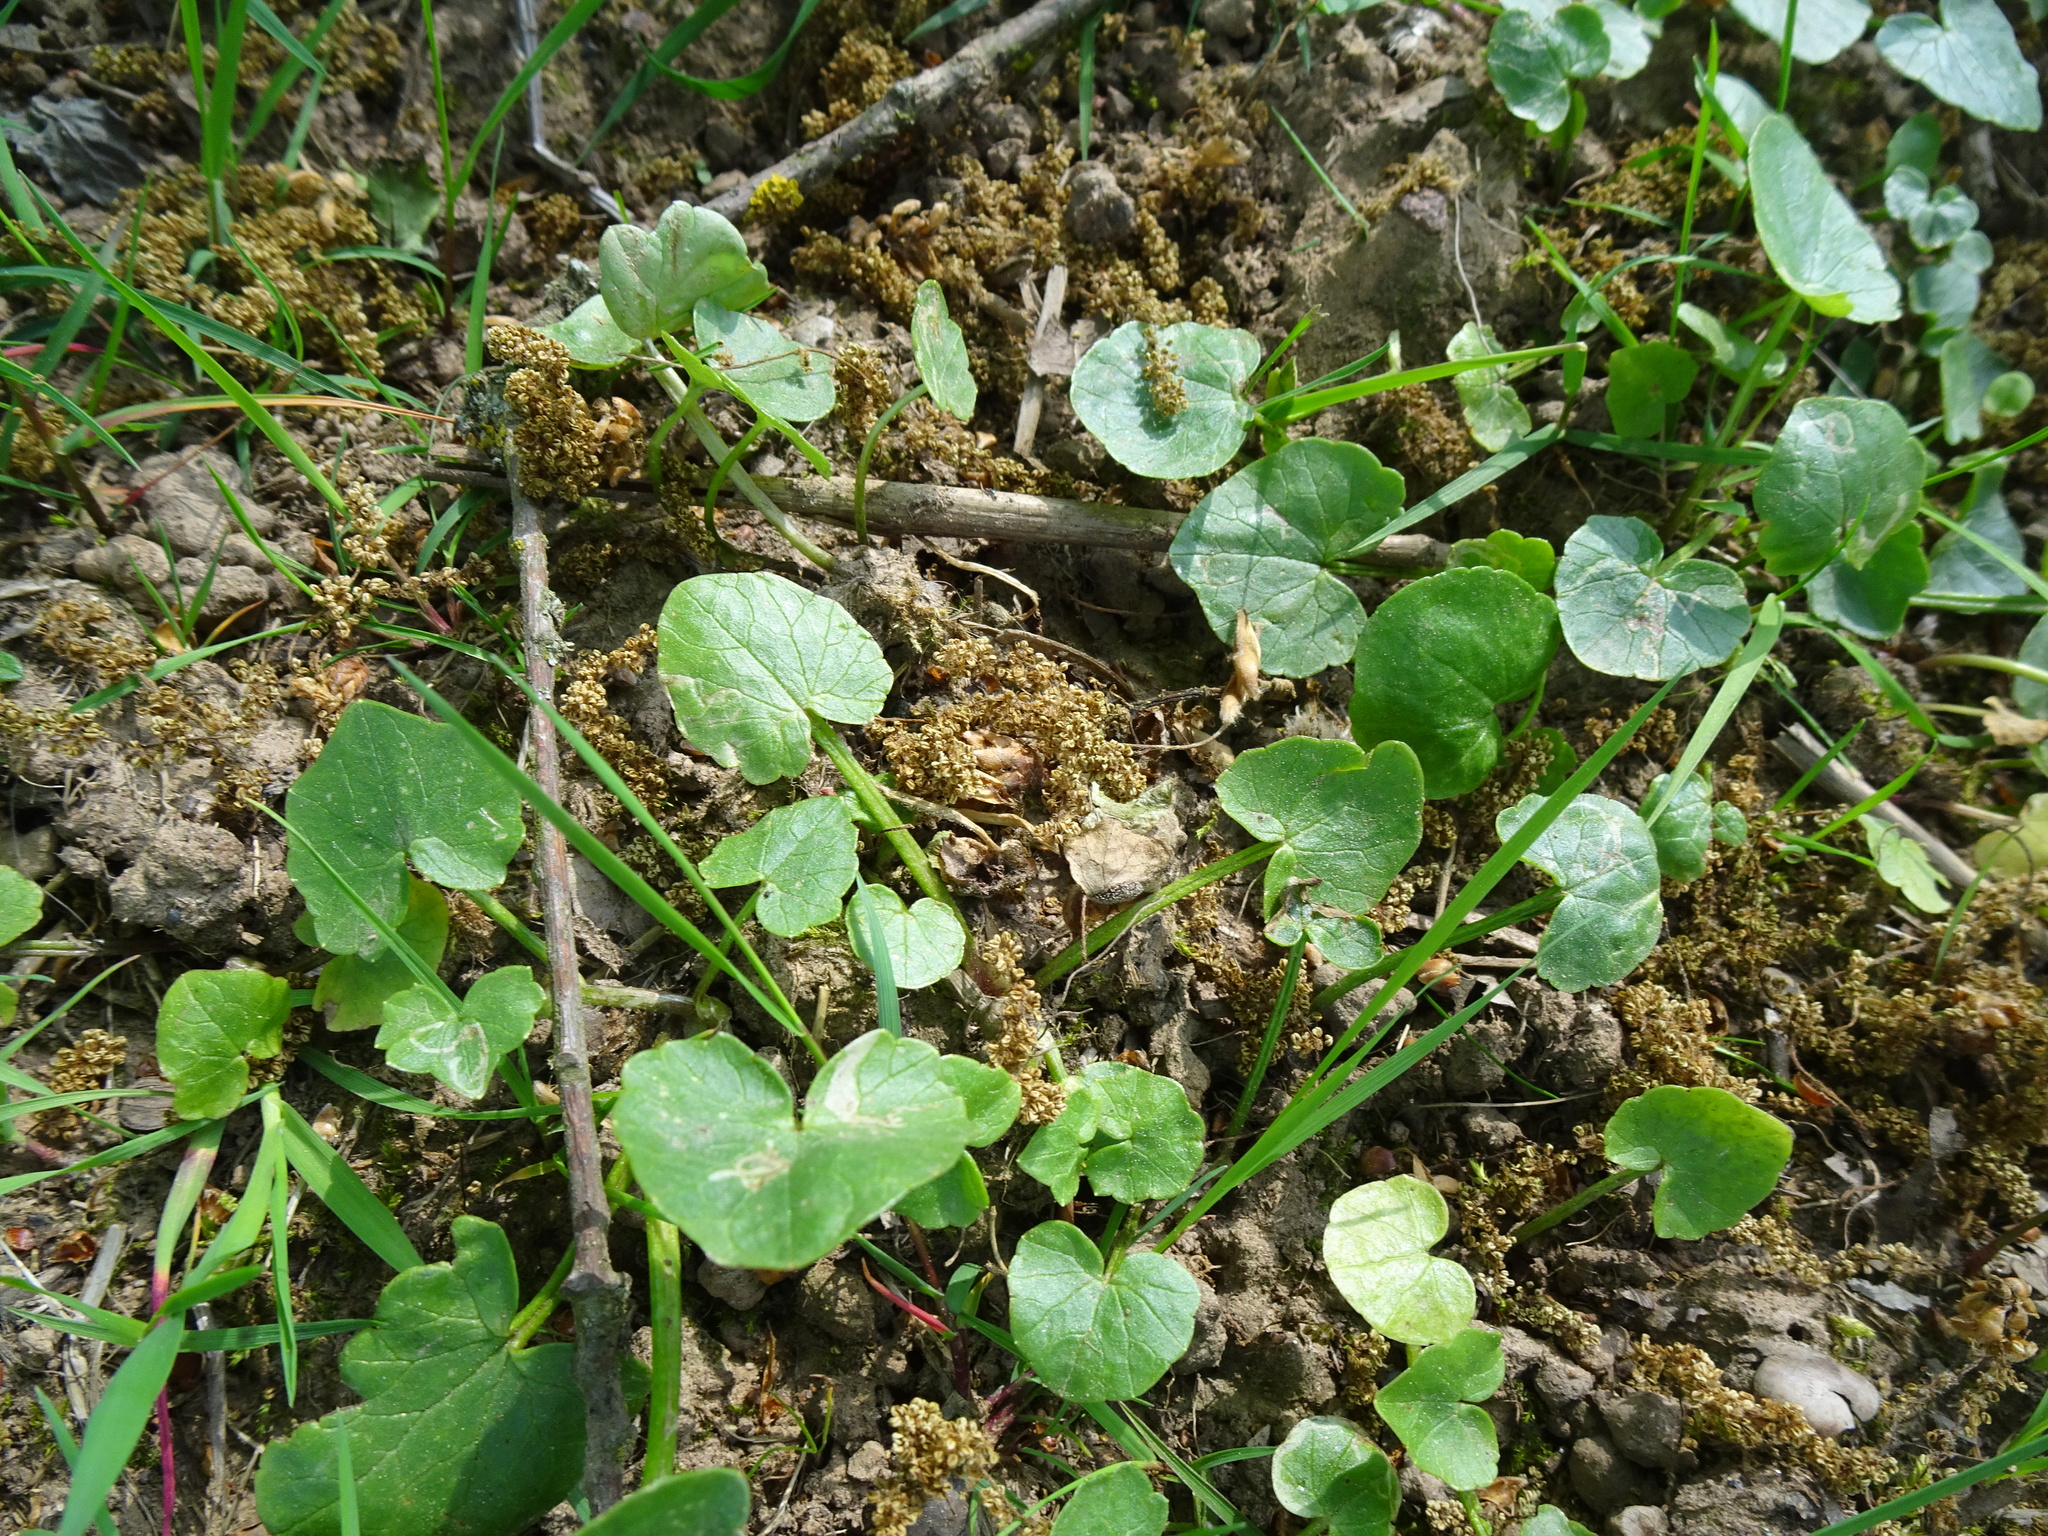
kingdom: Plantae
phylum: Tracheophyta
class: Magnoliopsida
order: Ranunculales
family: Ranunculaceae
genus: Ficaria
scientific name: Ficaria verna
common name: Lesser celandine
